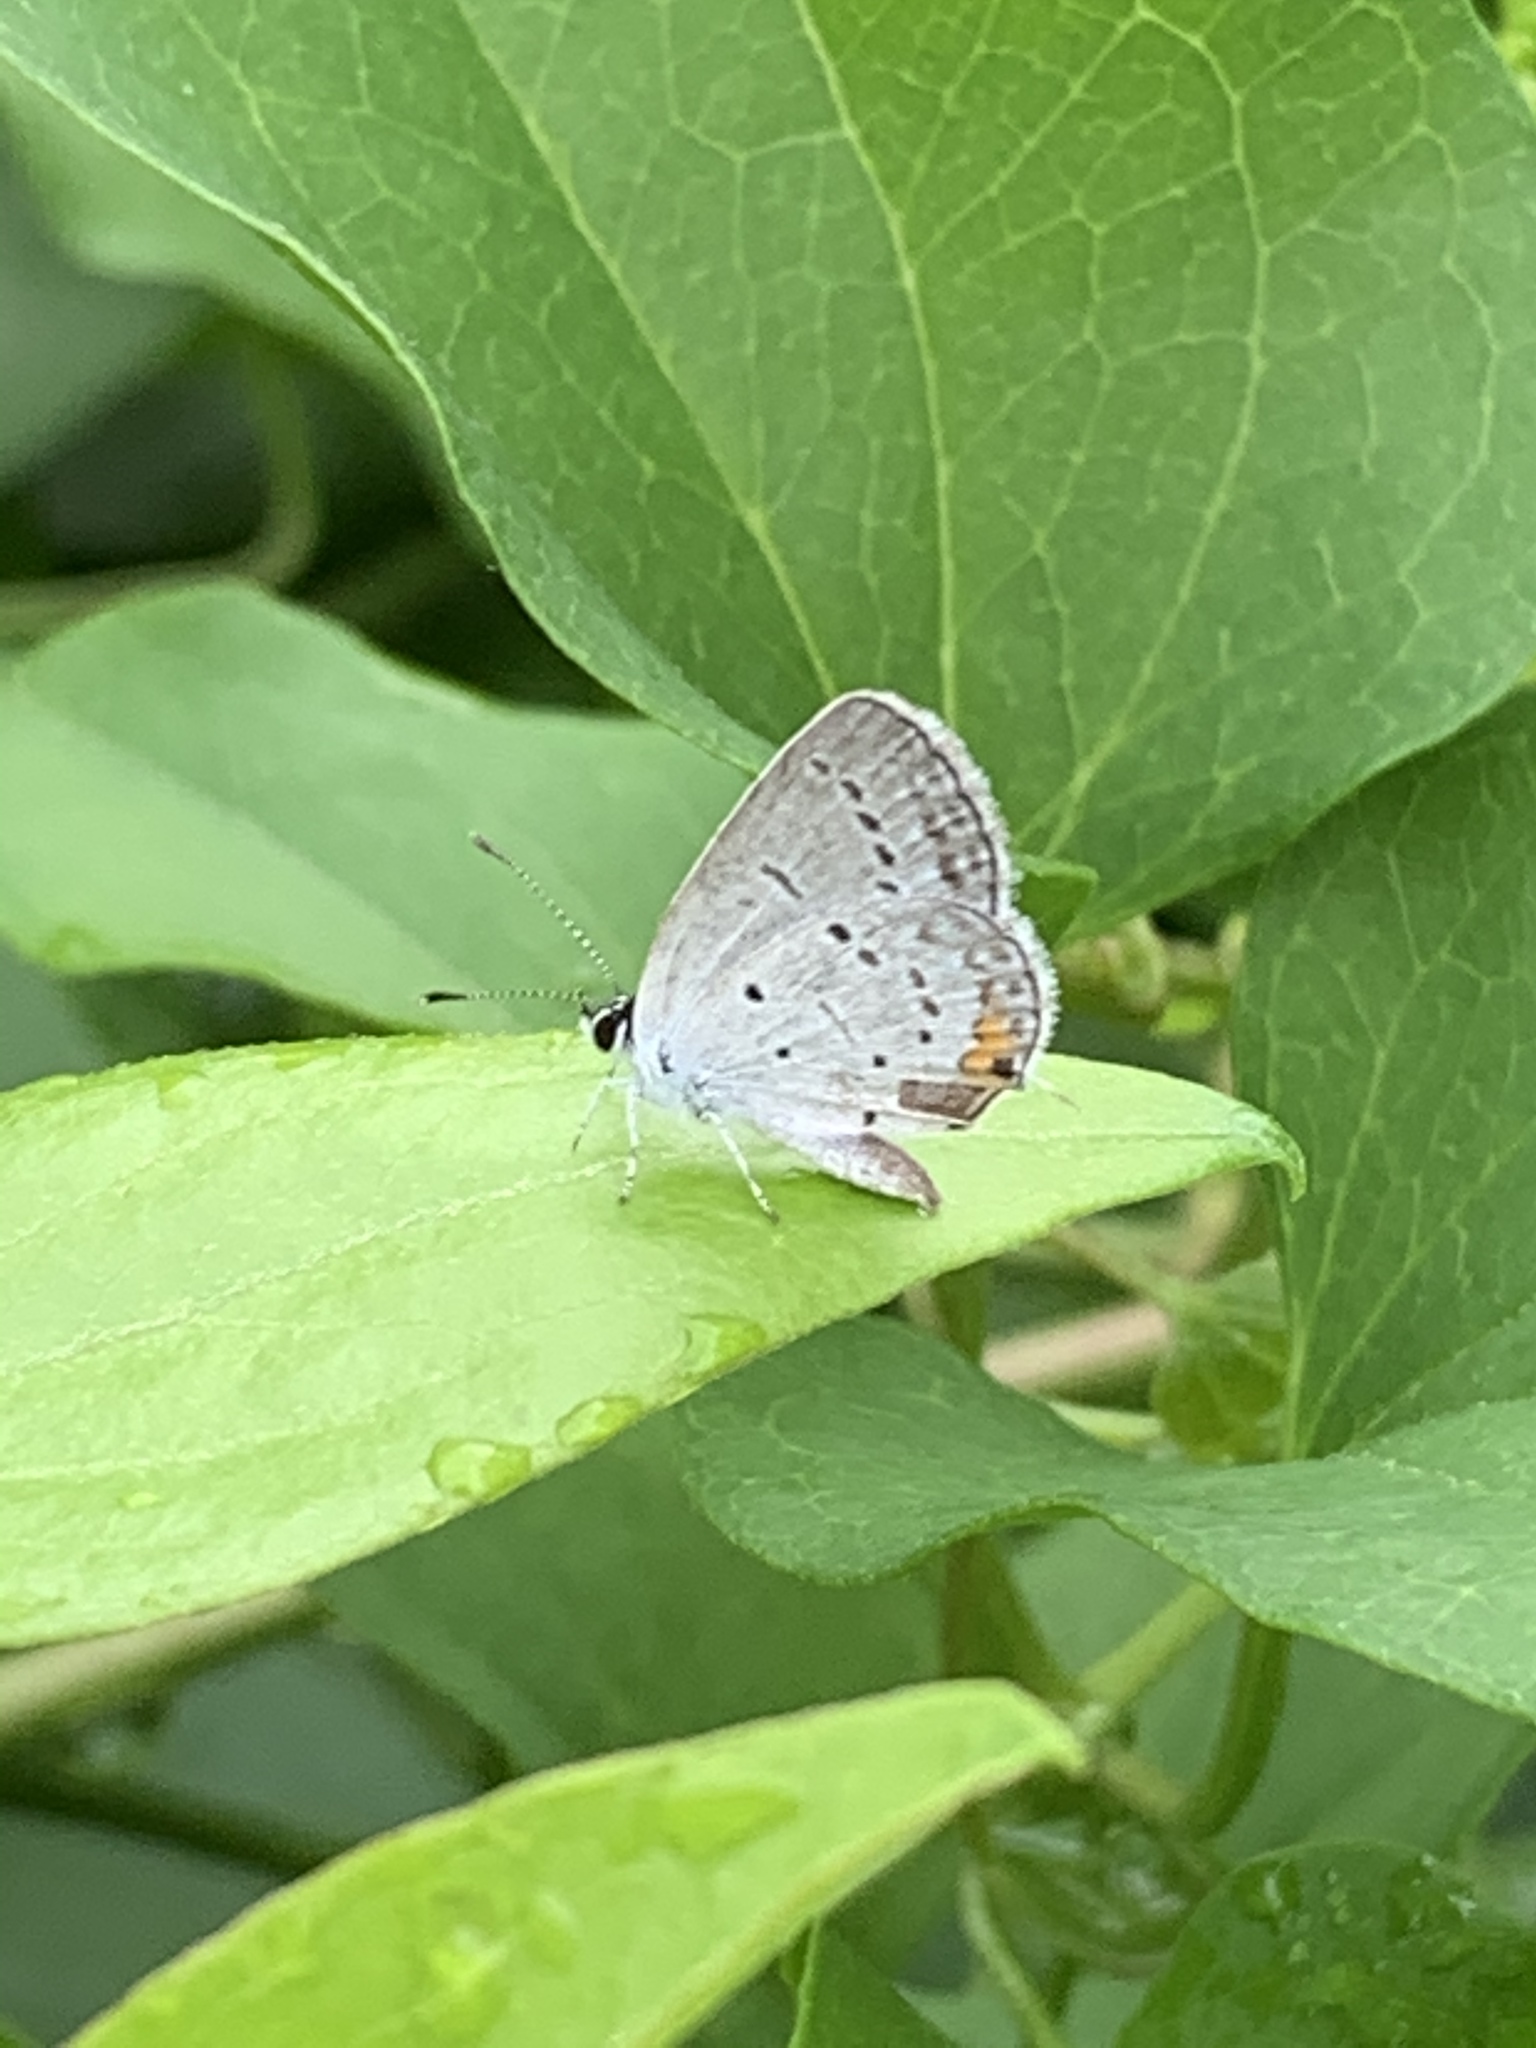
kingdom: Animalia
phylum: Arthropoda
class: Insecta
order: Lepidoptera
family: Lycaenidae
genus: Elkalyce
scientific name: Elkalyce comyntas
